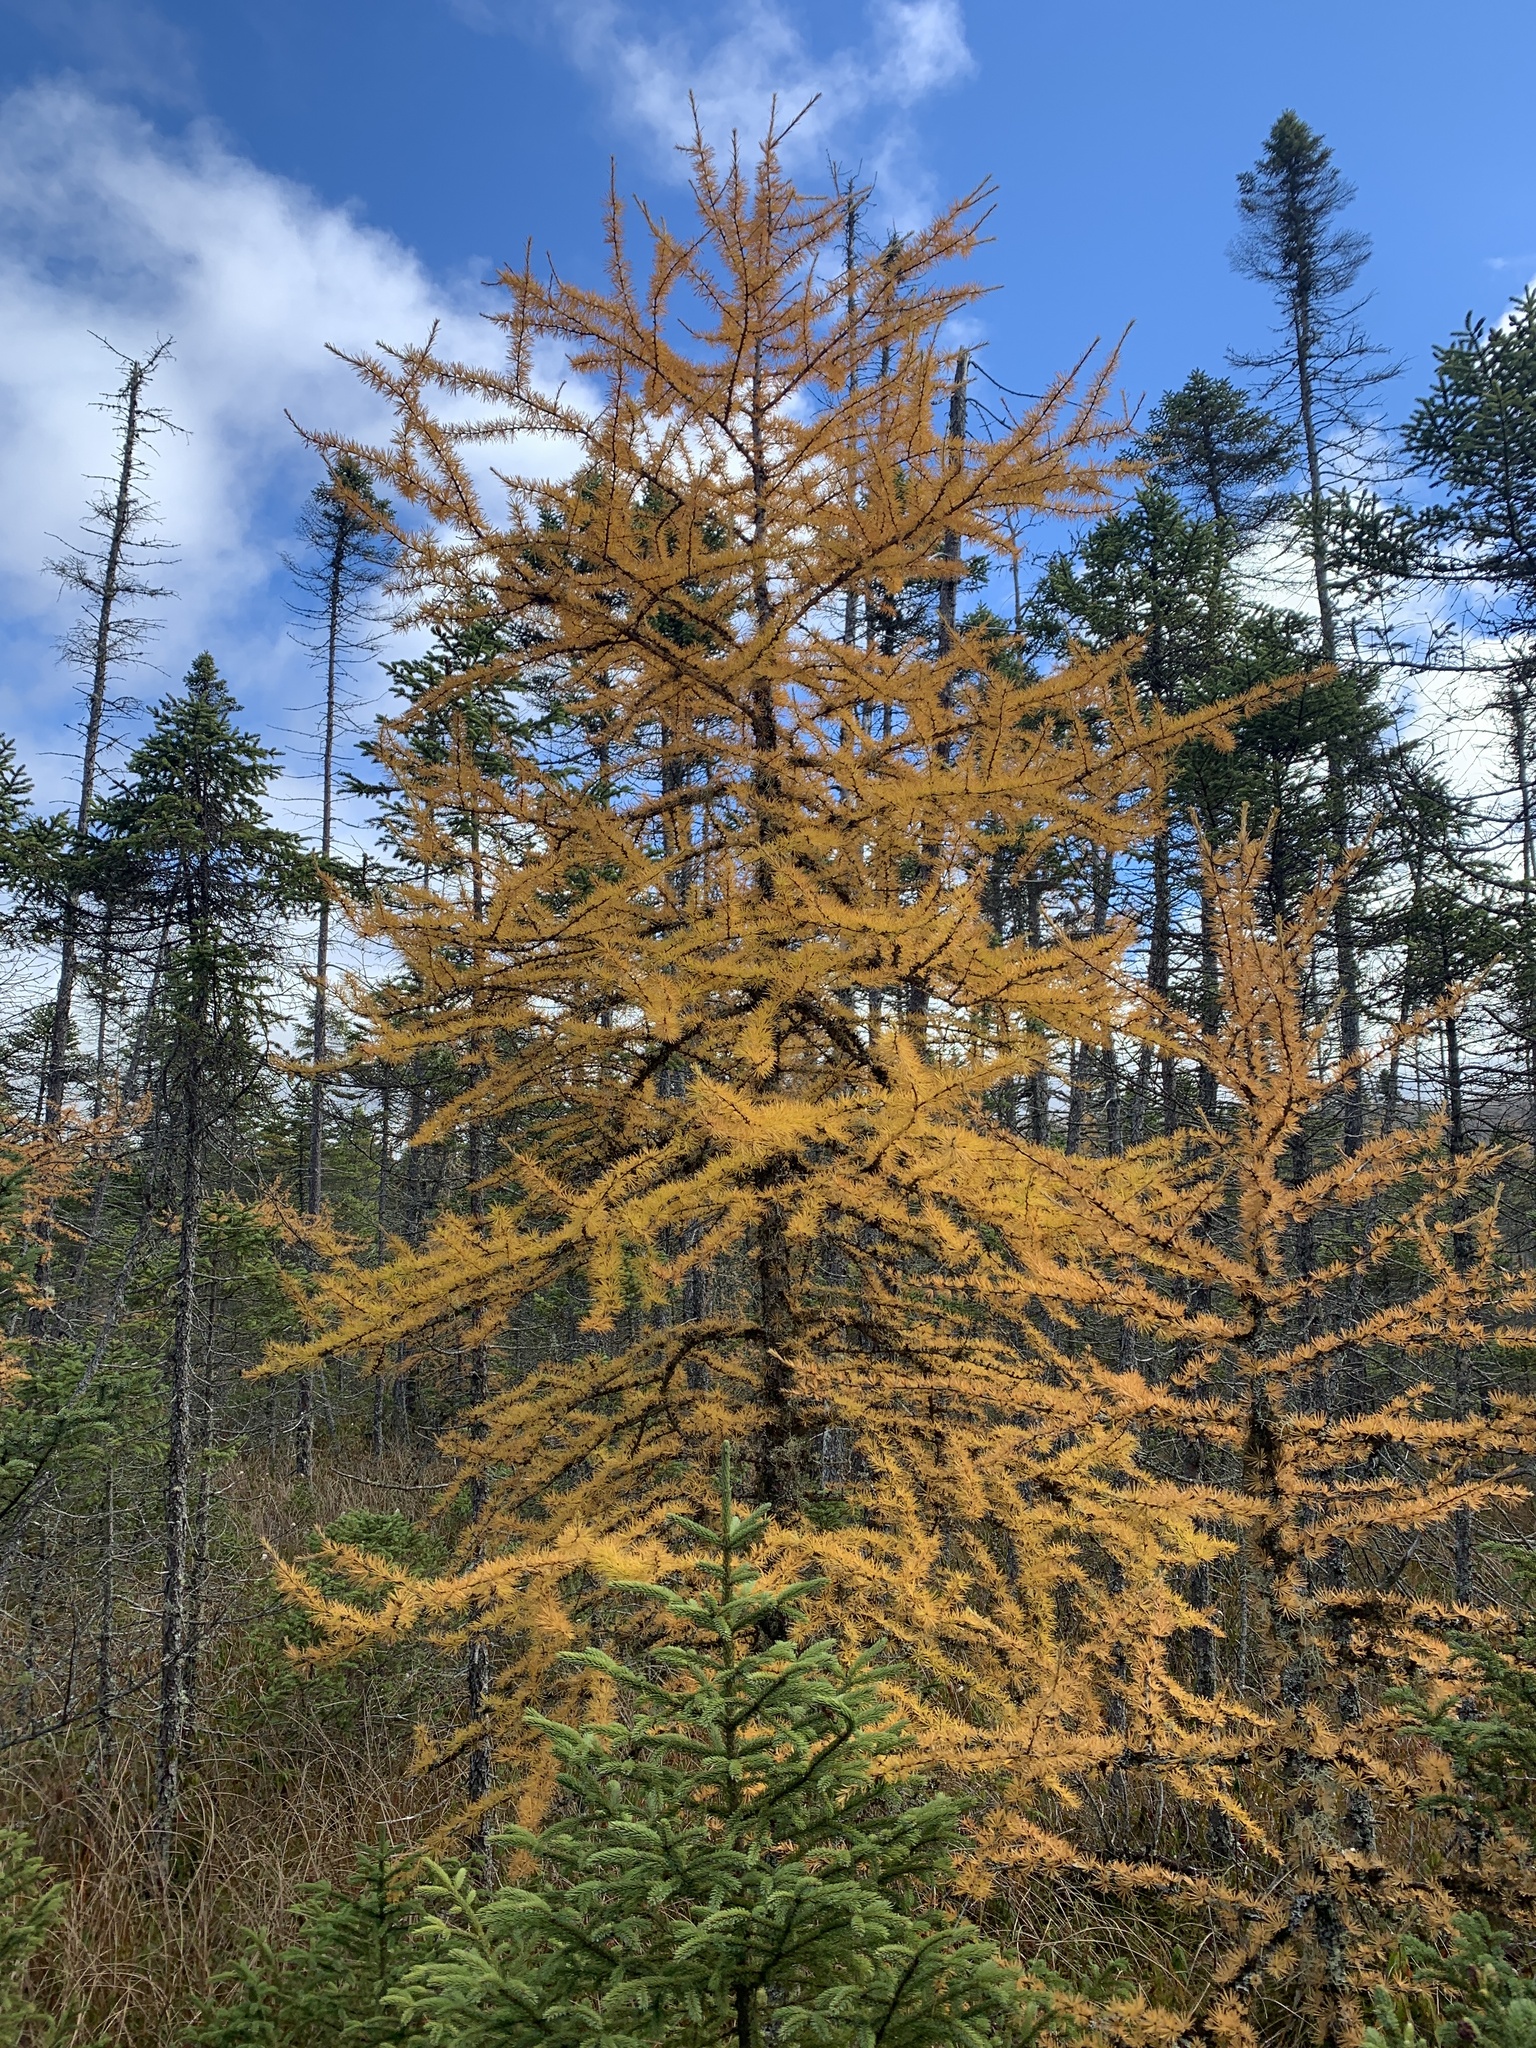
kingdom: Plantae
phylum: Tracheophyta
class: Pinopsida
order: Pinales
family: Pinaceae
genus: Larix
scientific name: Larix laricina
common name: American larch
